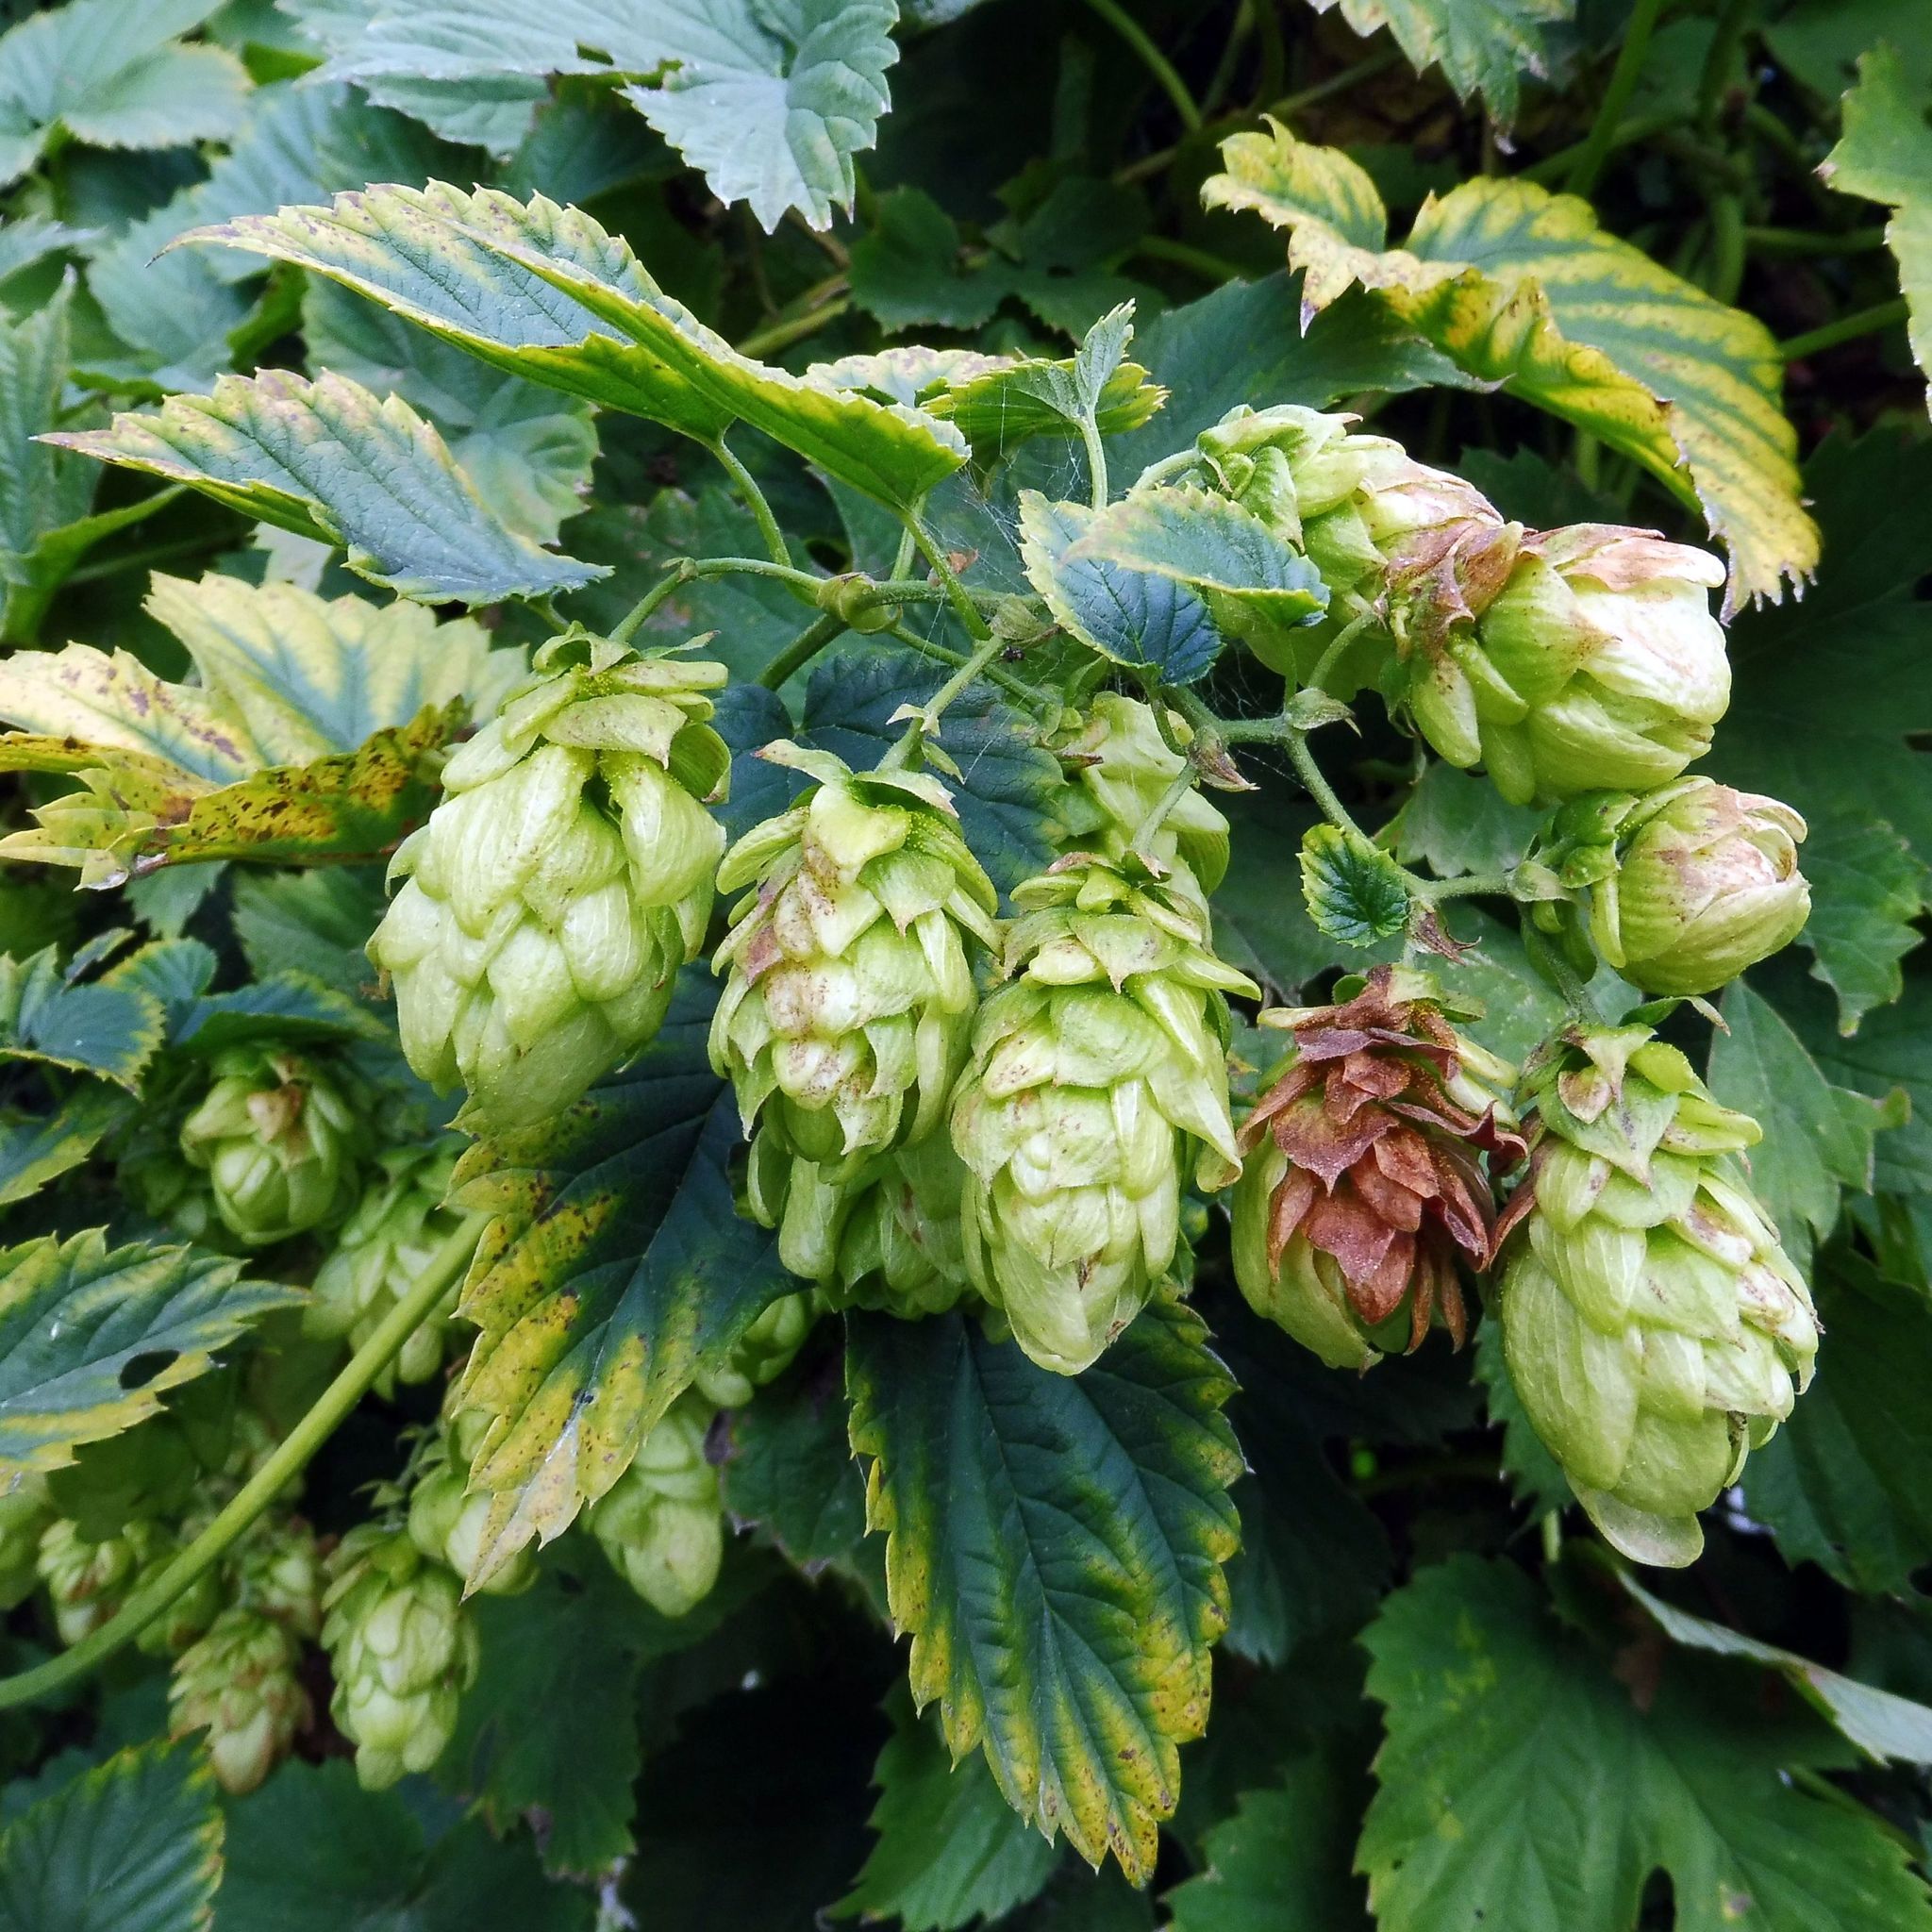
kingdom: Plantae
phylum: Tracheophyta
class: Magnoliopsida
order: Rosales
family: Cannabaceae
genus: Humulus
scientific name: Humulus lupulus
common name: Hop
